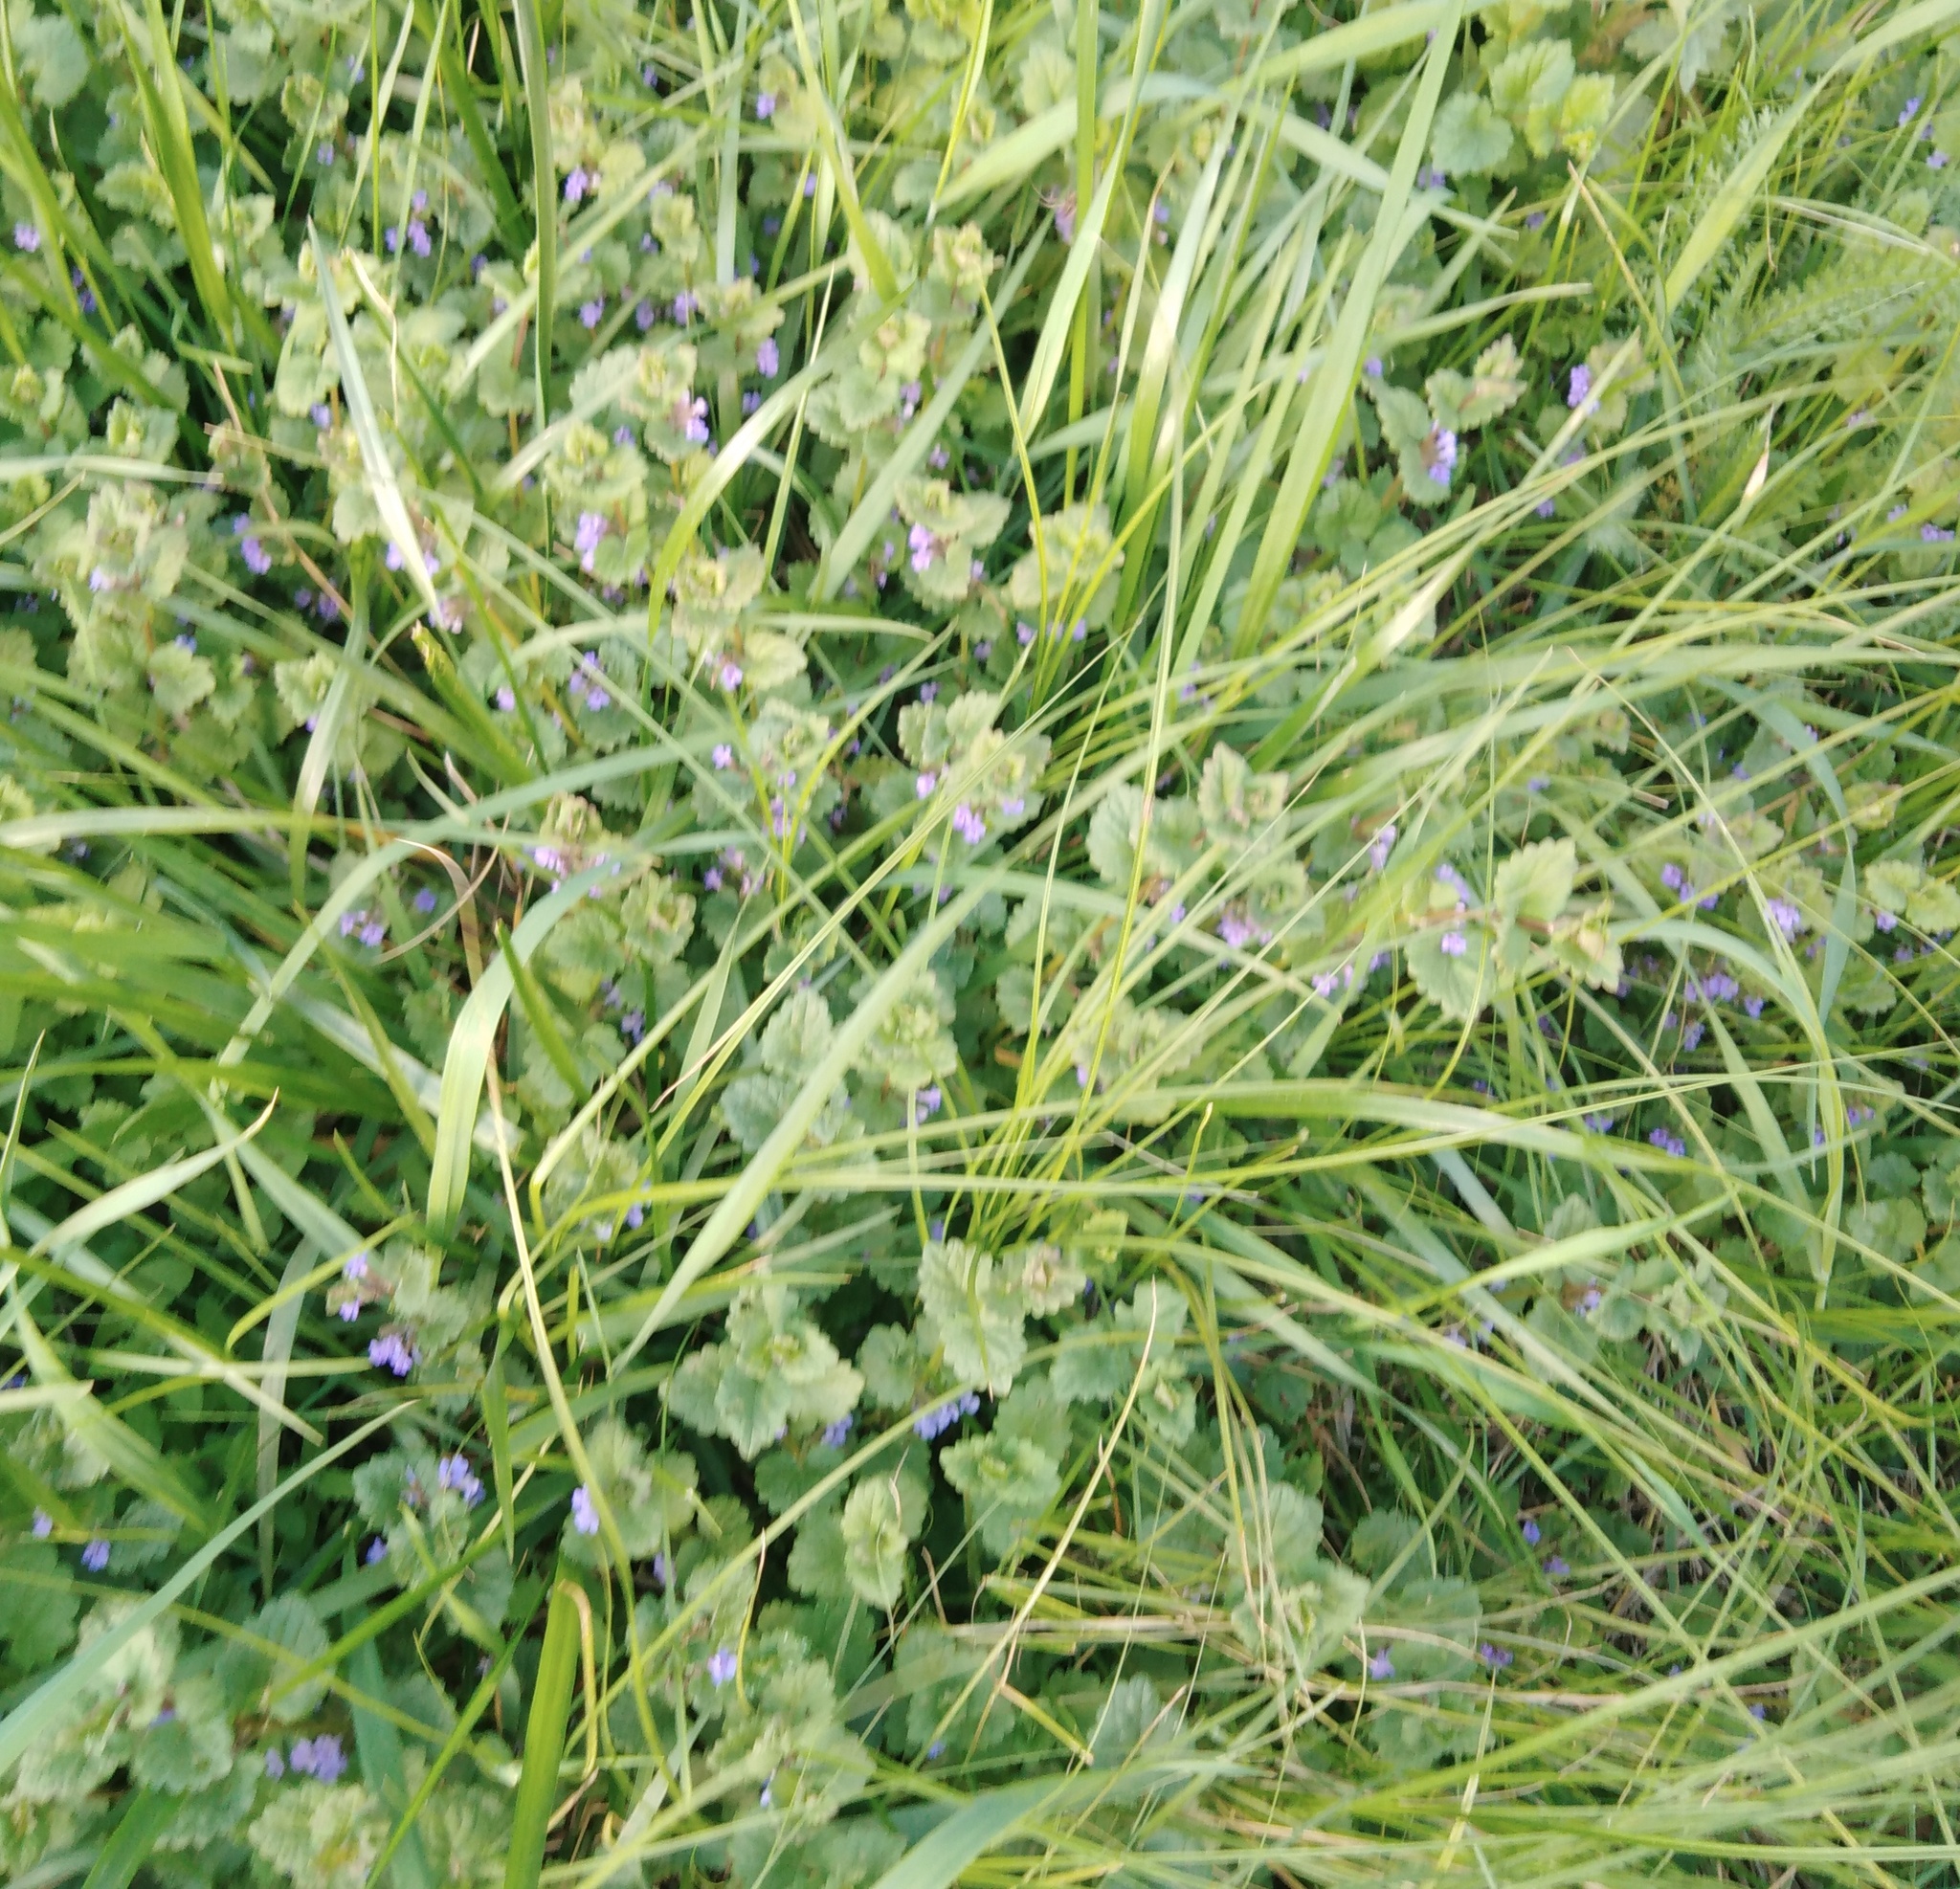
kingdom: Plantae
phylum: Tracheophyta
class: Magnoliopsida
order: Lamiales
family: Lamiaceae
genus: Glechoma
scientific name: Glechoma hederacea
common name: Ground ivy
